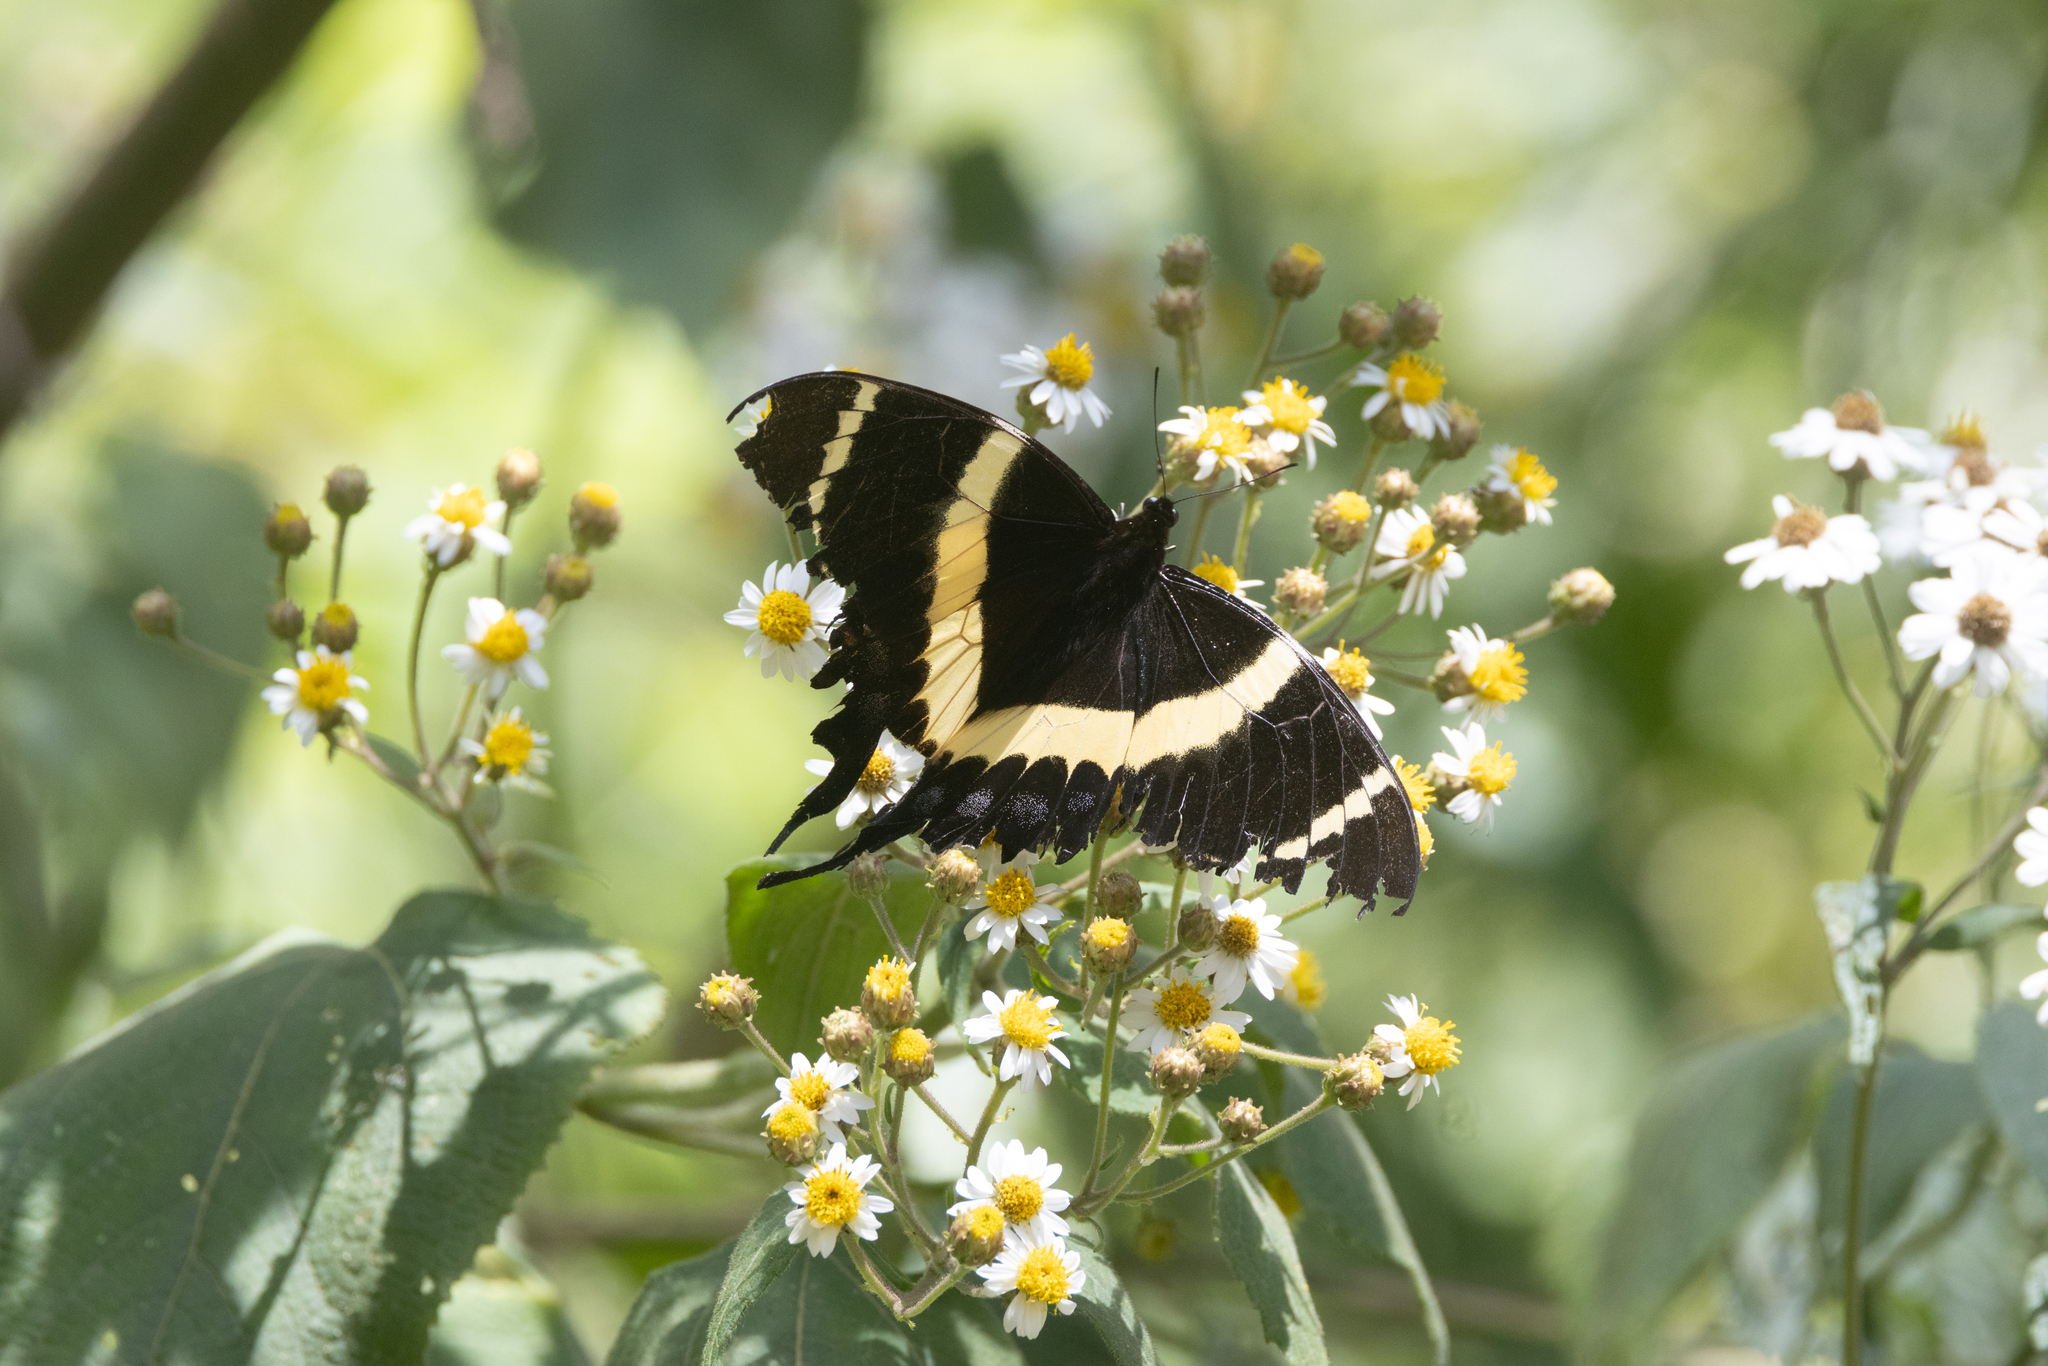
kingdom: Animalia
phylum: Arthropoda
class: Insecta
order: Lepidoptera
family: Papilionidae
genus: Papilio
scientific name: Papilio garamas
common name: Magnificent swallowtail
